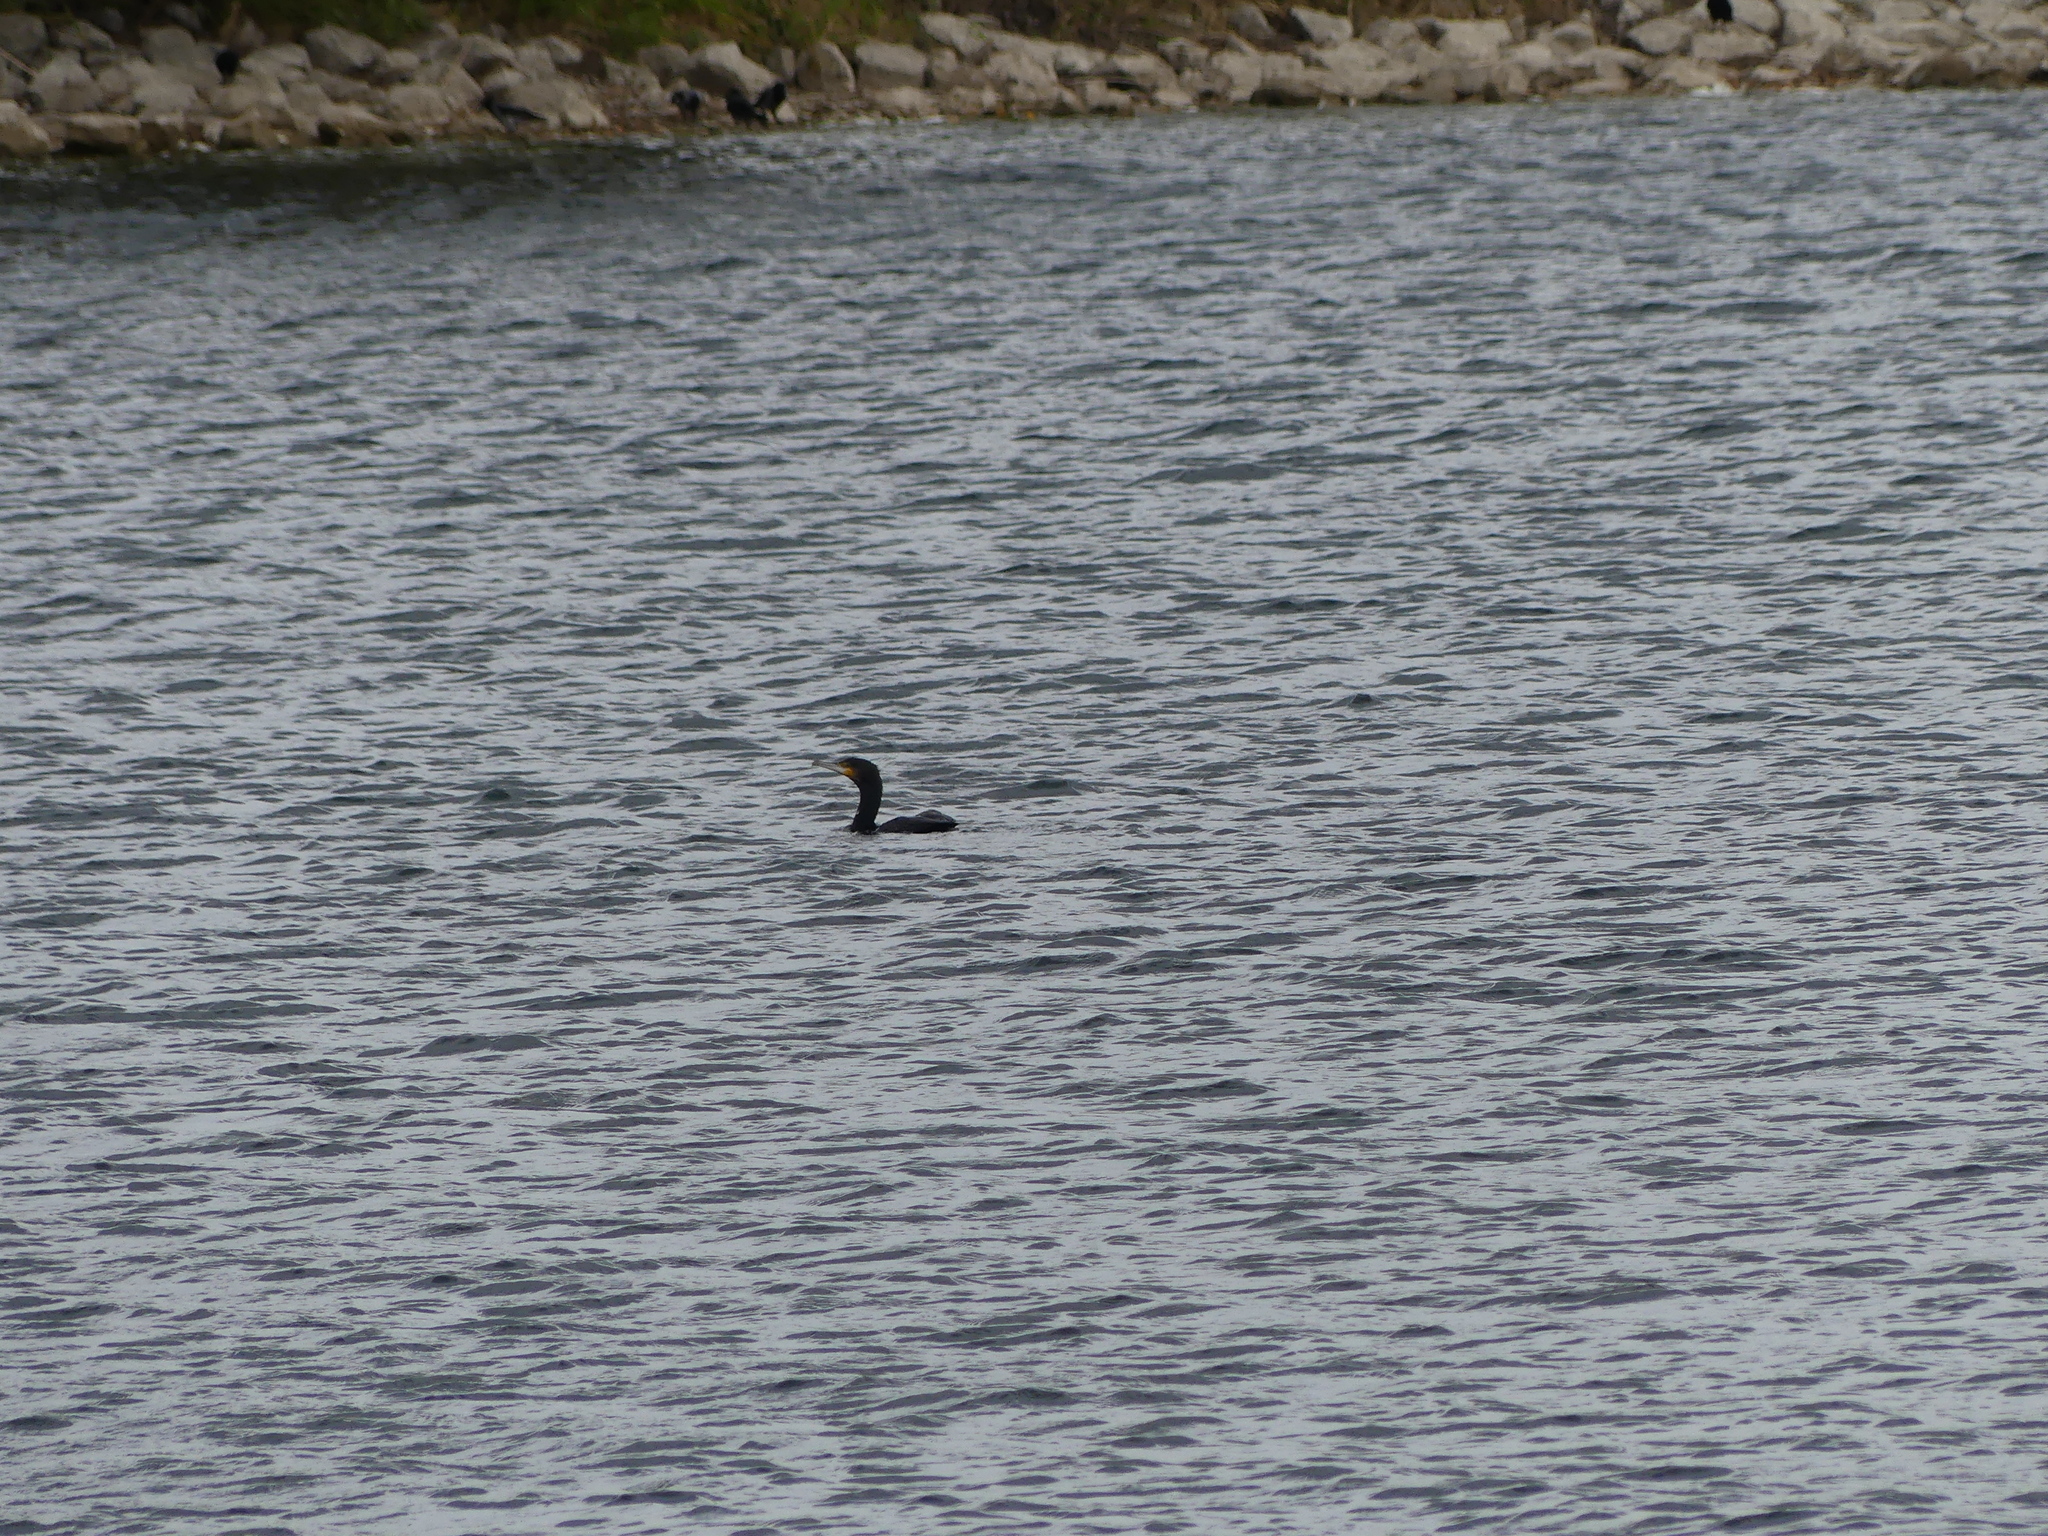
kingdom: Animalia
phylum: Chordata
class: Aves
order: Suliformes
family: Phalacrocoracidae
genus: Phalacrocorax
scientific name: Phalacrocorax carbo
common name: Great cormorant
